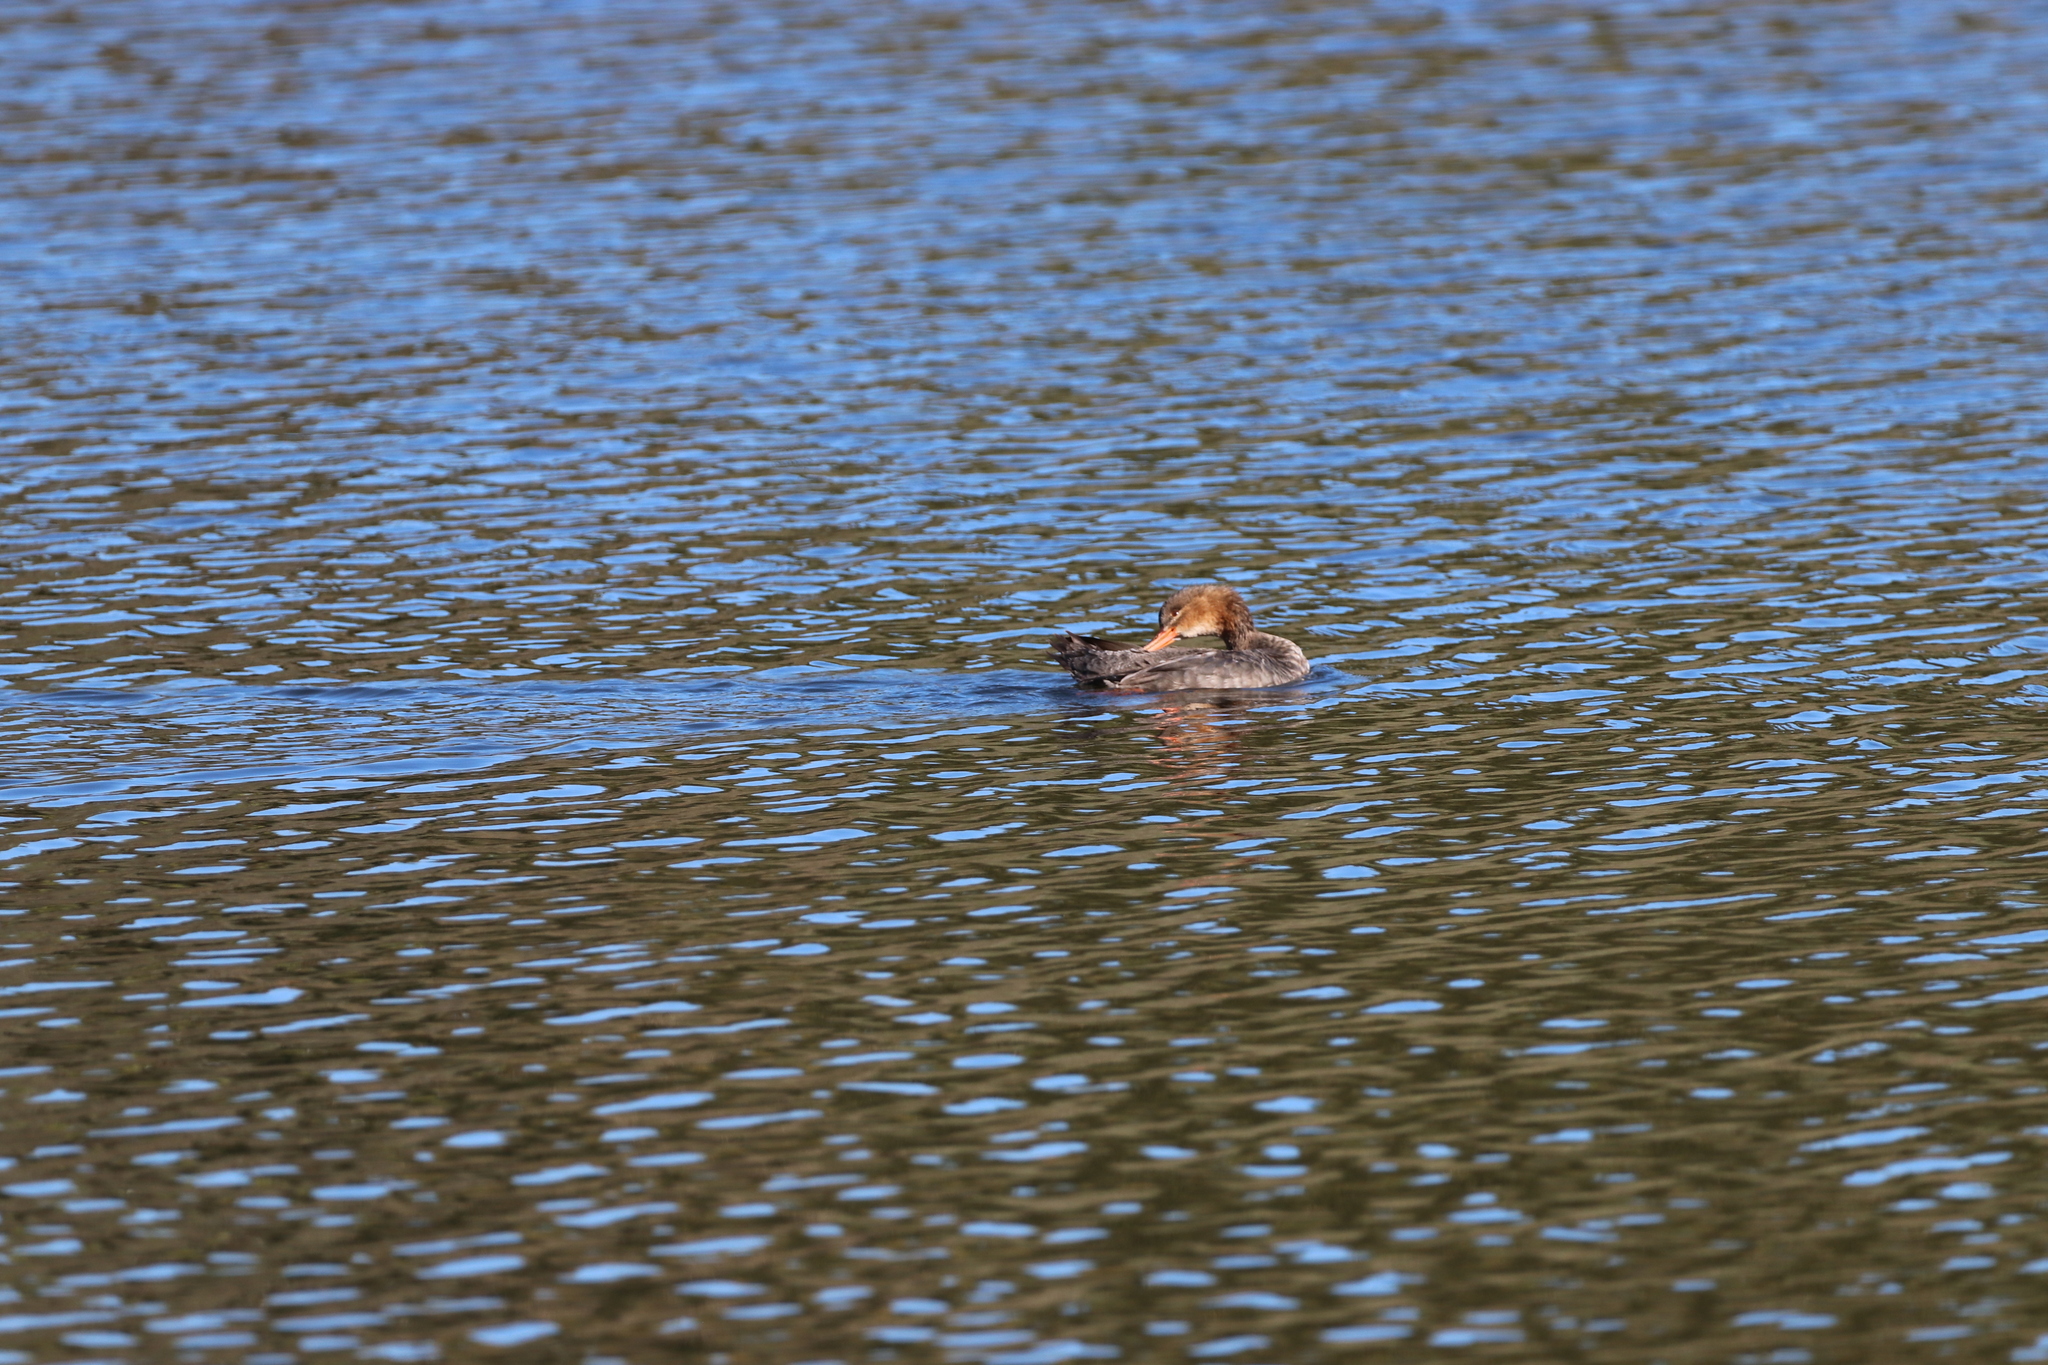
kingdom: Animalia
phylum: Chordata
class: Aves
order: Anseriformes
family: Anatidae
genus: Mergus
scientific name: Mergus serrator
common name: Red-breasted merganser
